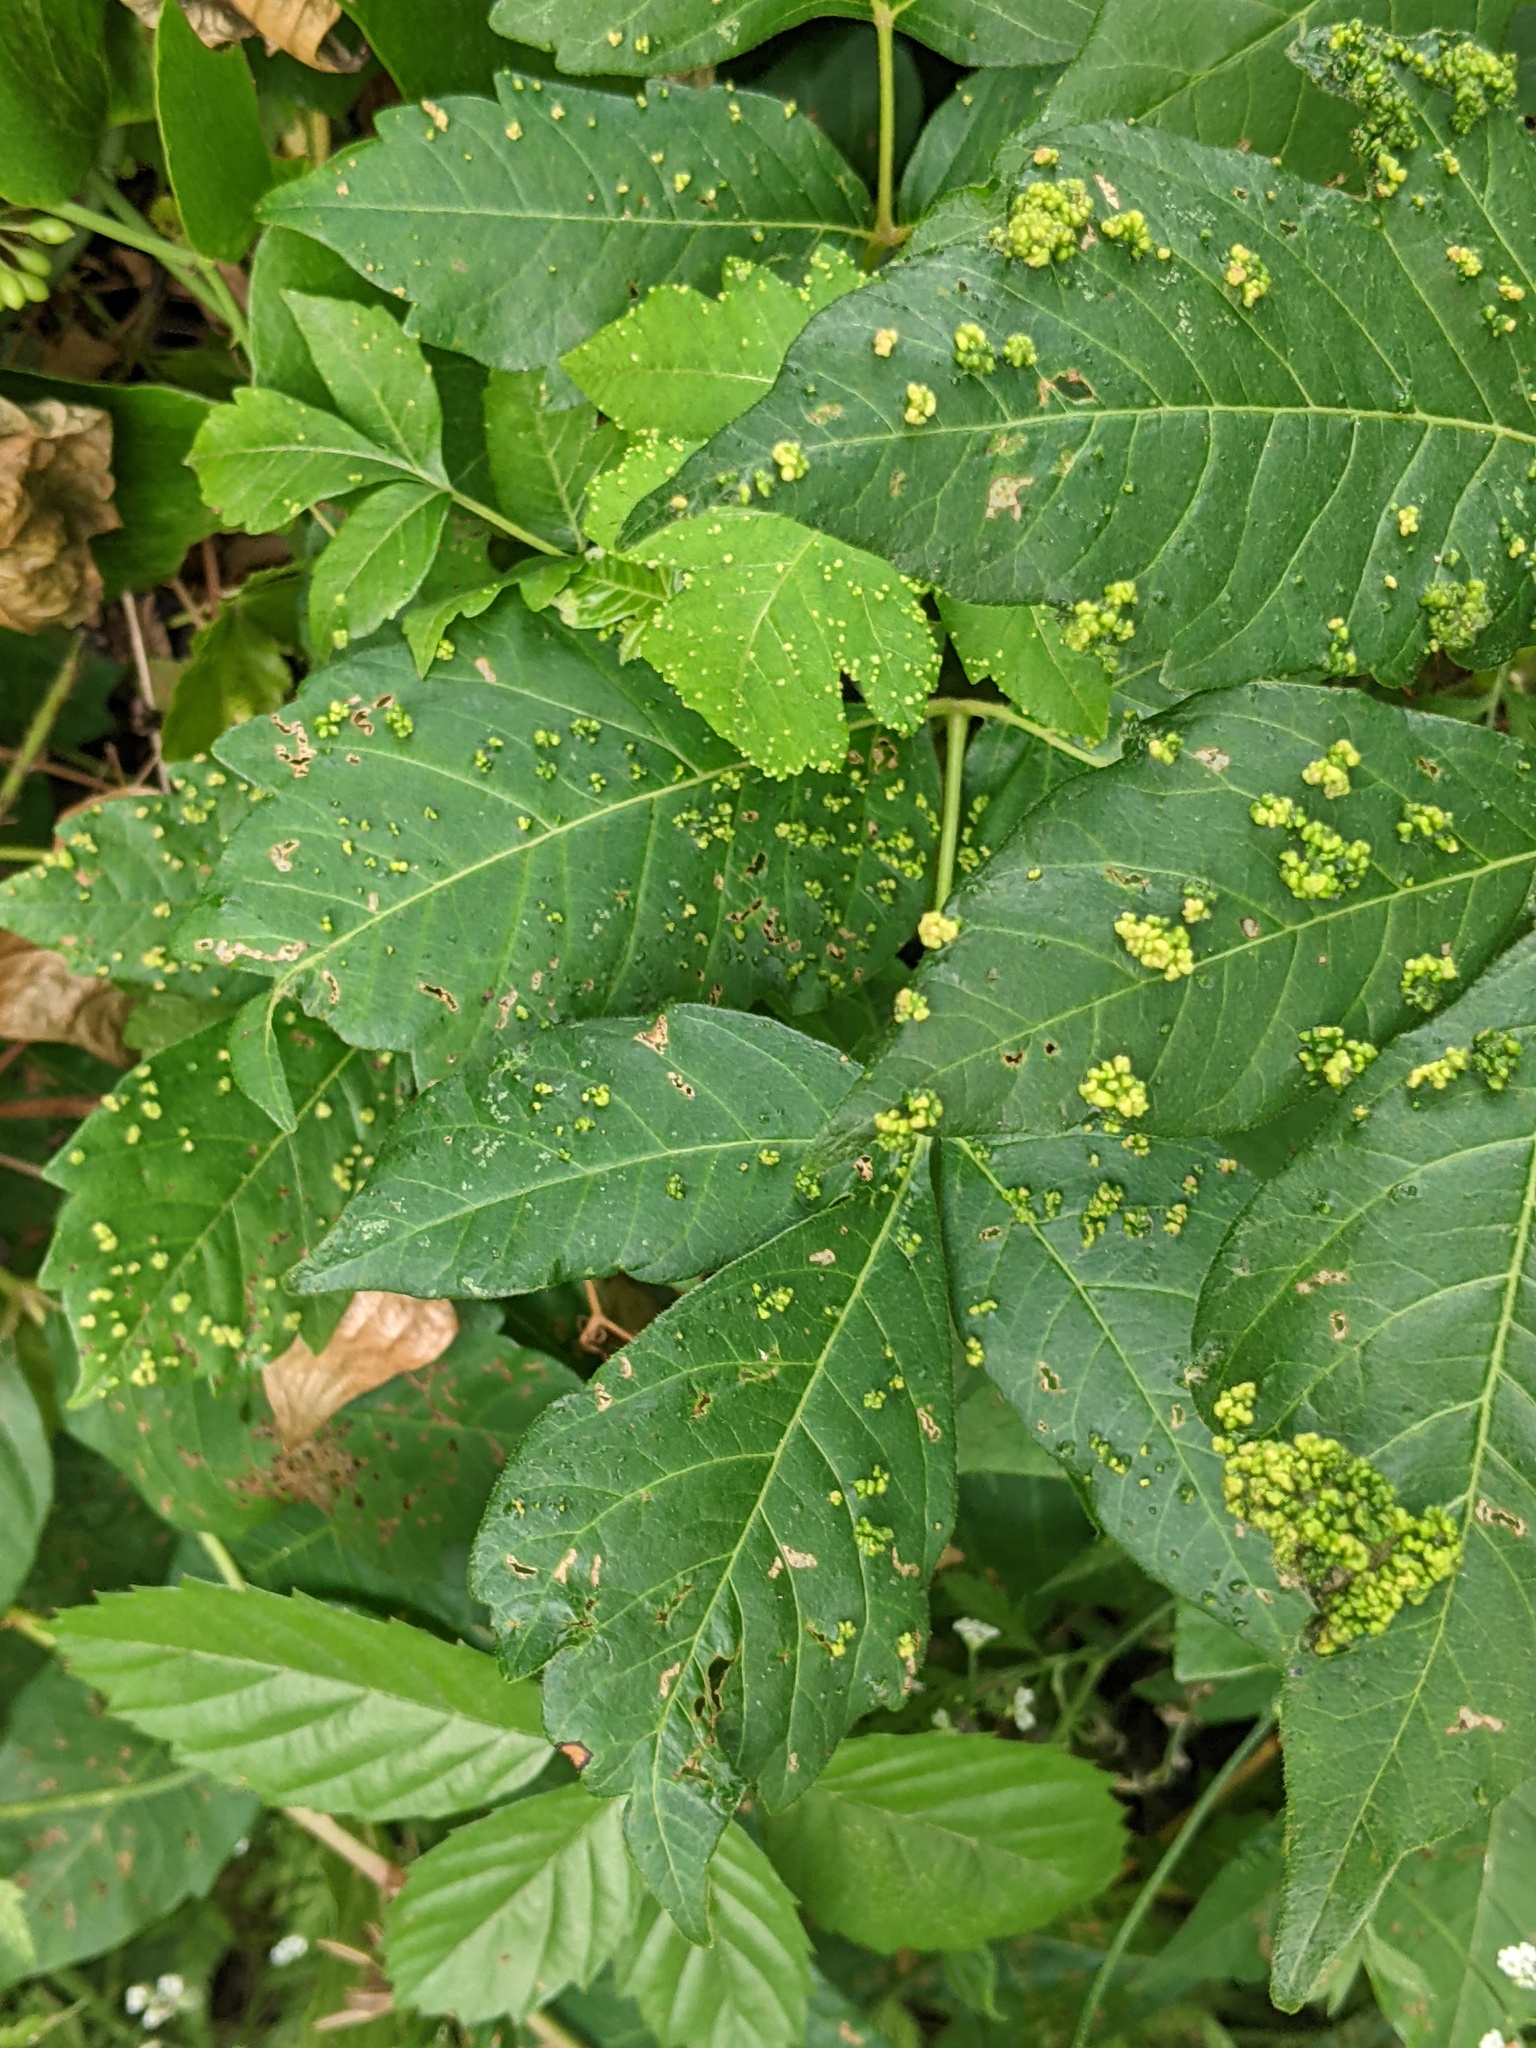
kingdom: Animalia
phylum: Arthropoda
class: Arachnida
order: Trombidiformes
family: Eriophyidae
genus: Aculops
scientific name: Aculops
